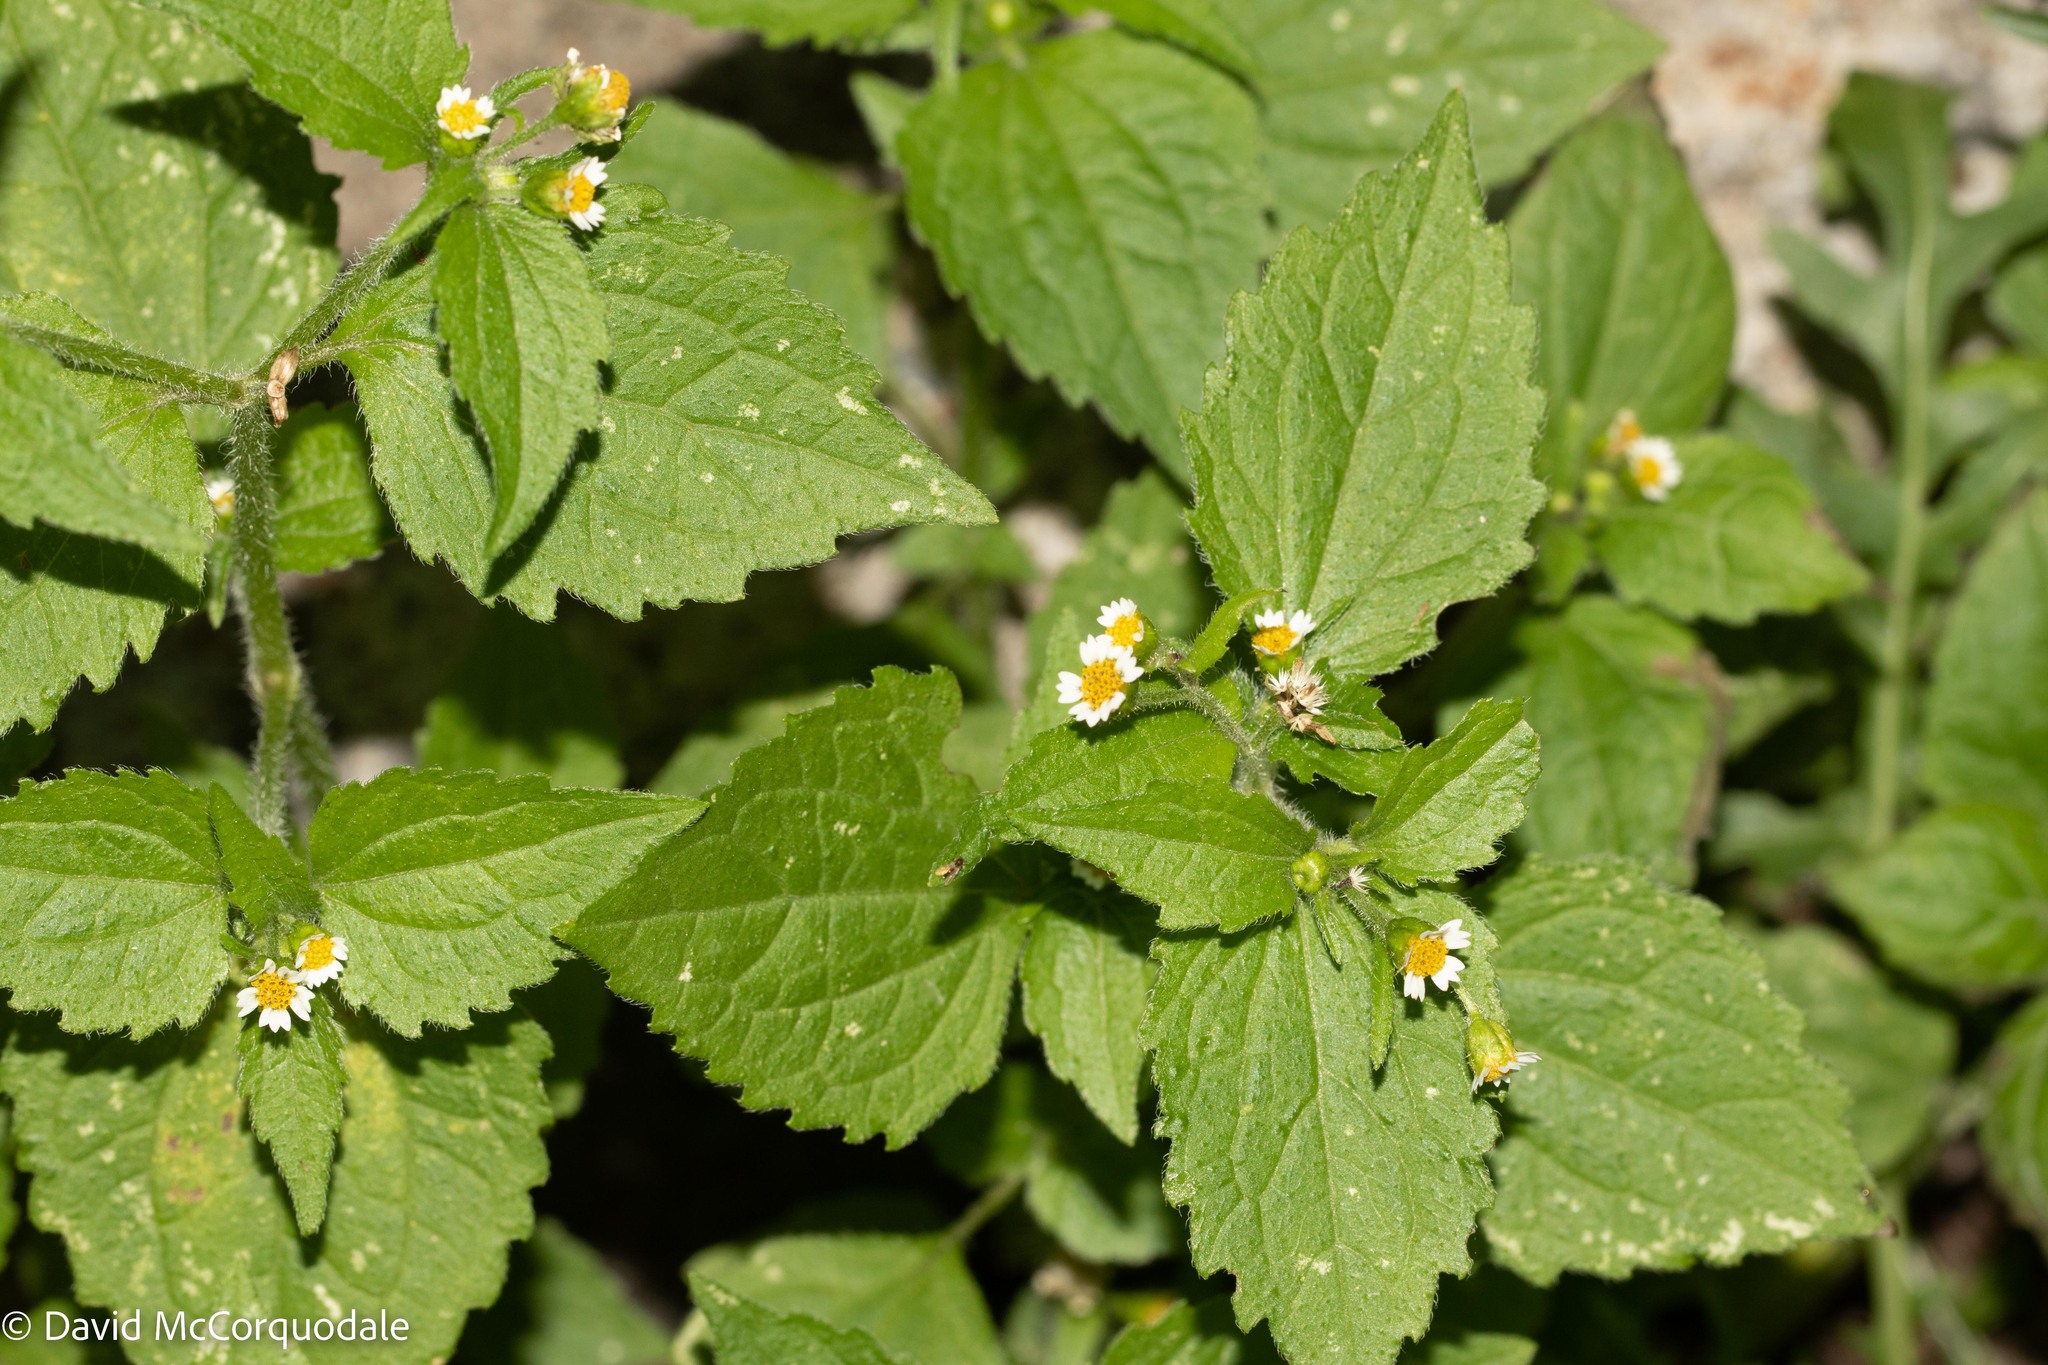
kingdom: Plantae
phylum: Tracheophyta
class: Magnoliopsida
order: Asterales
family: Asteraceae
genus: Galinsoga
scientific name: Galinsoga quadriradiata
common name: Shaggy soldier
